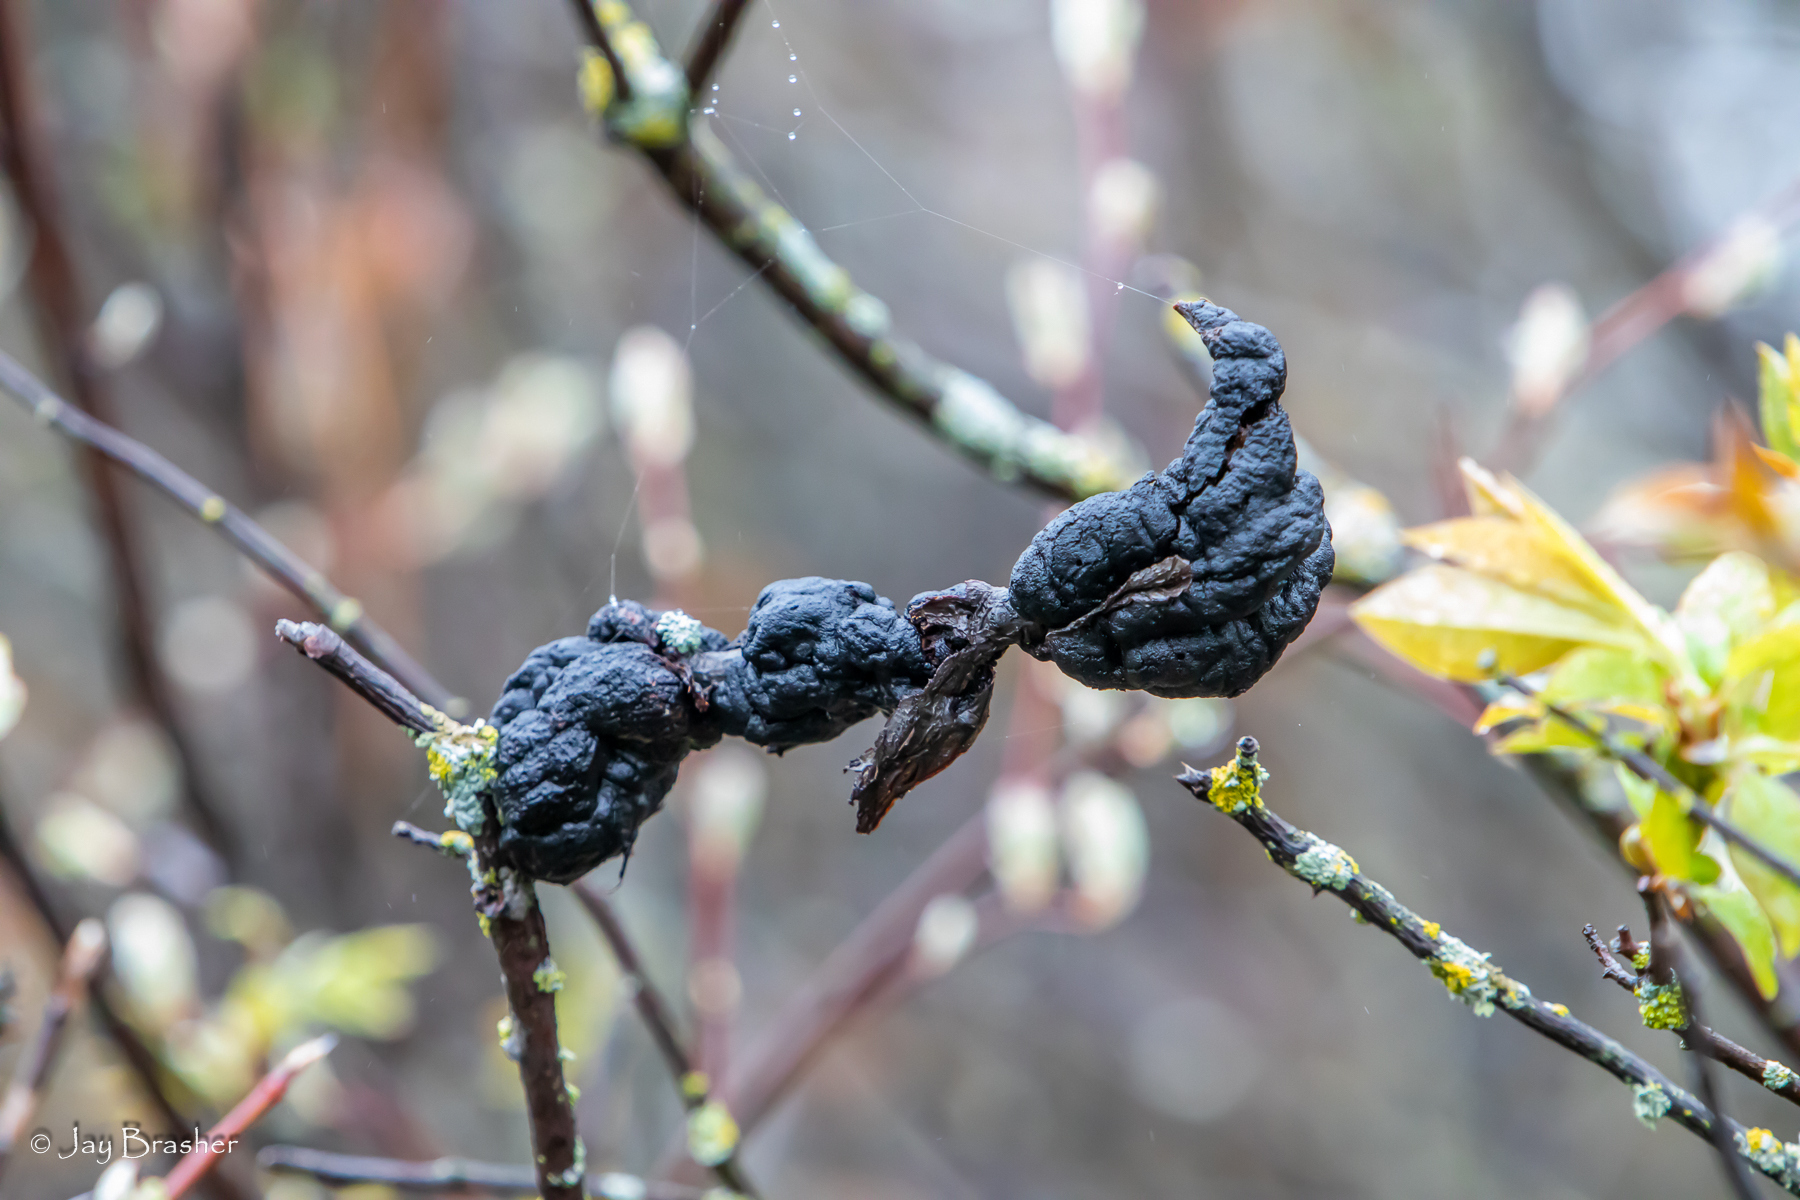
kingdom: Fungi
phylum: Ascomycota
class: Dothideomycetes
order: Venturiales
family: Venturiaceae
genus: Apiosporina
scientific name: Apiosporina morbosa
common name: Black knot
